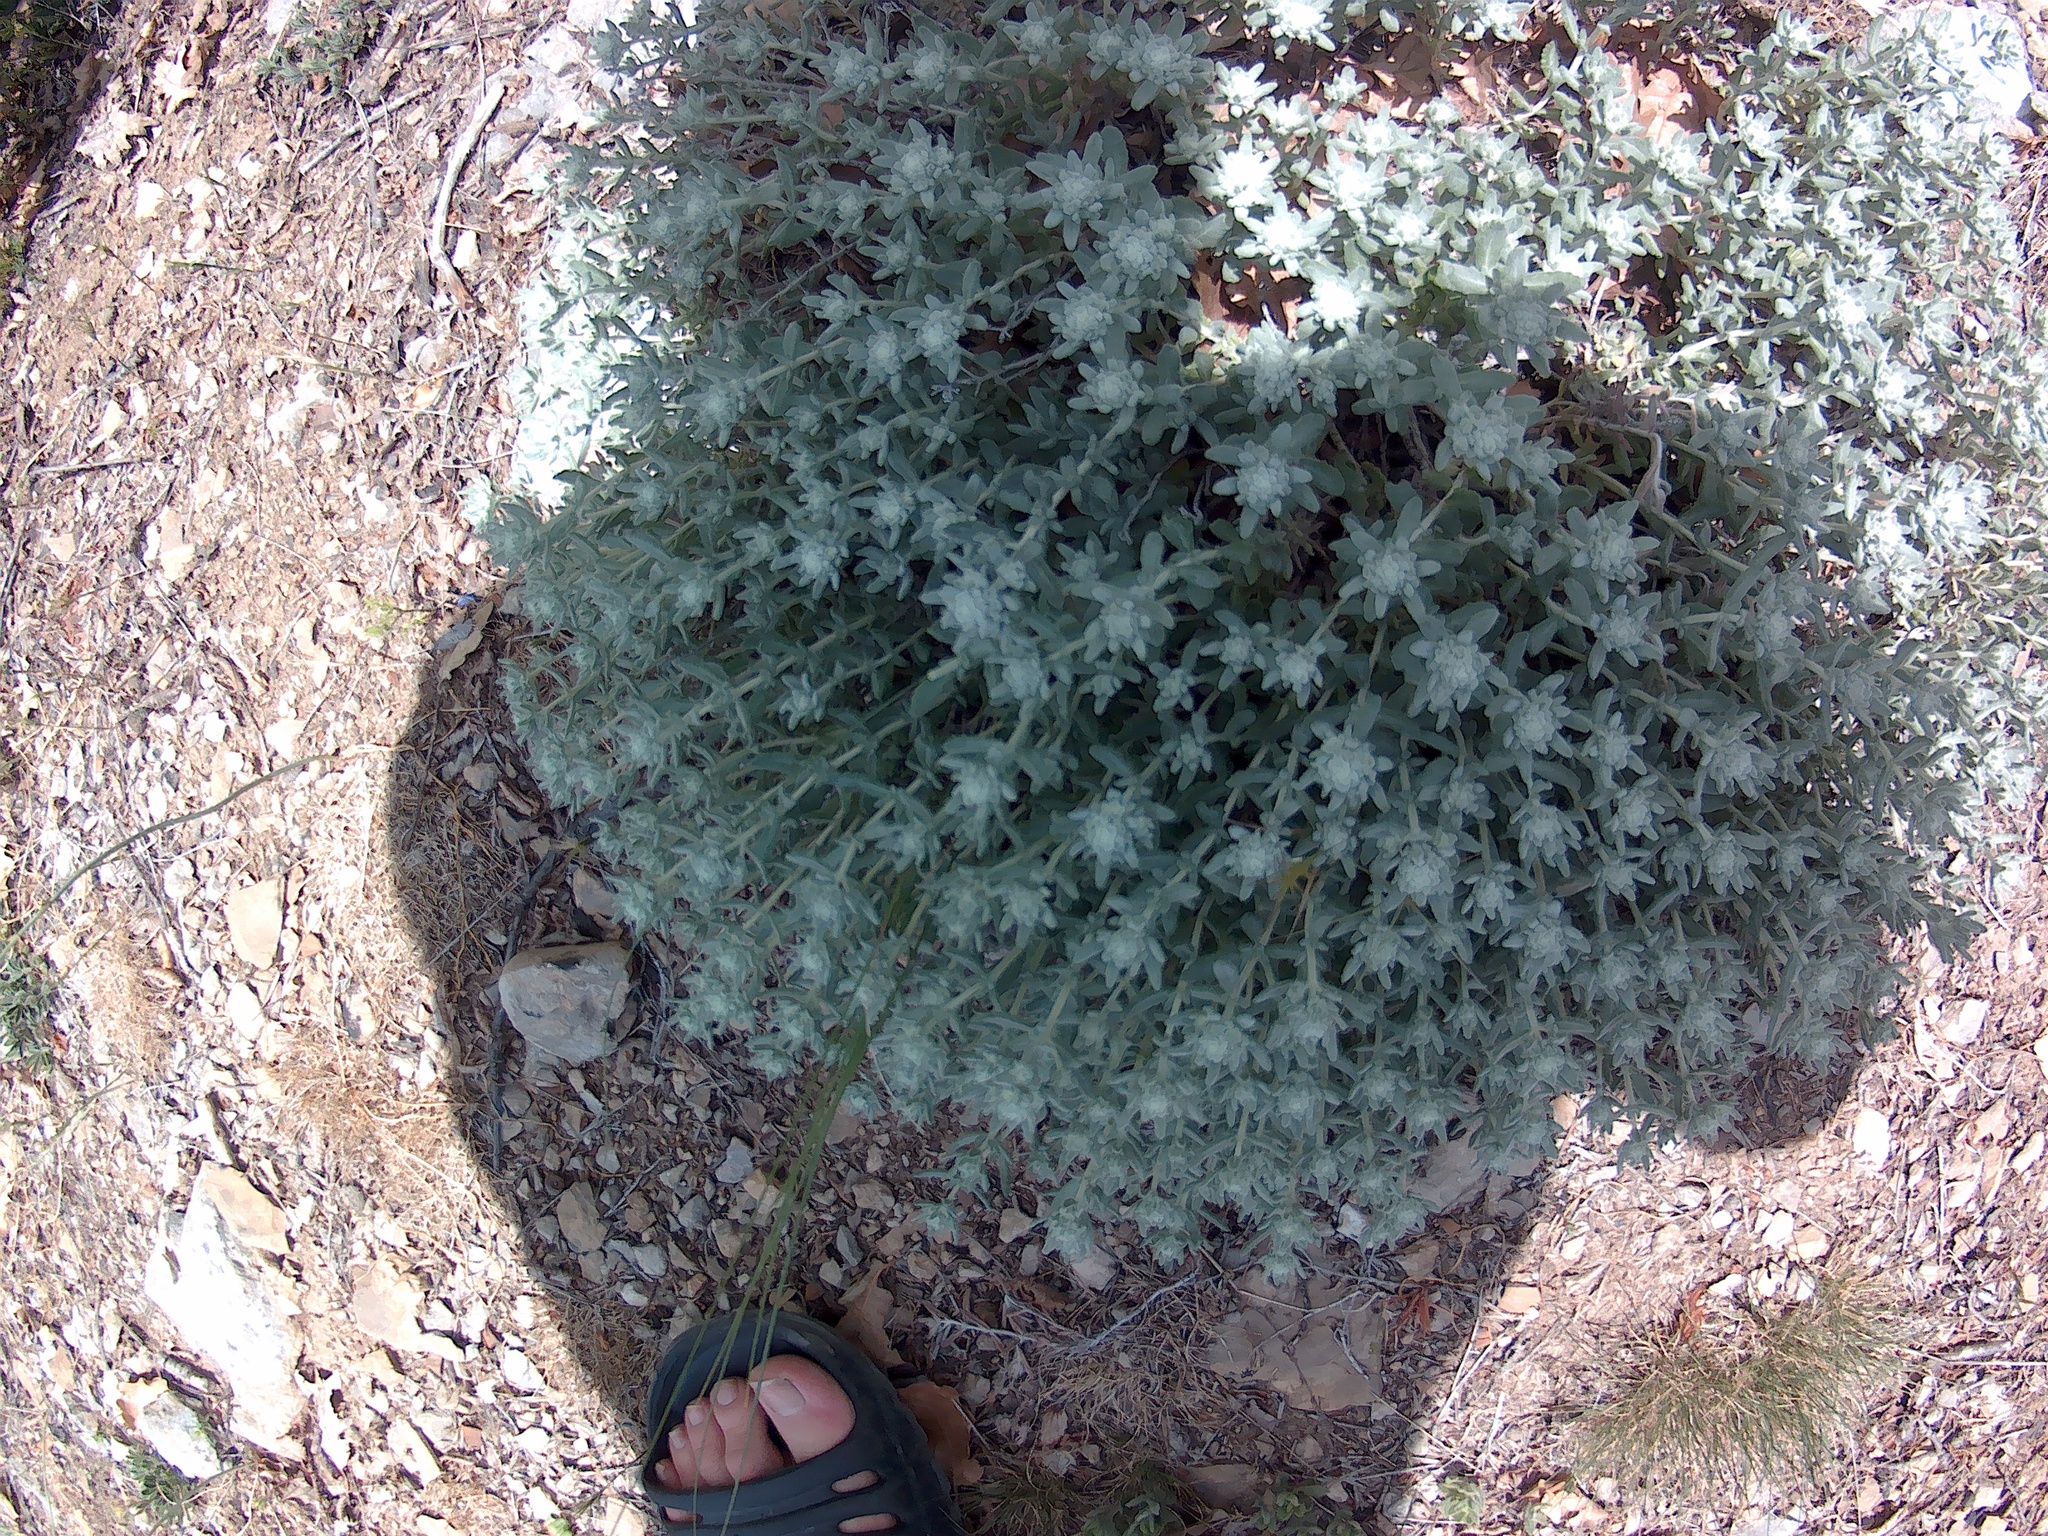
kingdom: Plantae
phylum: Tracheophyta
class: Magnoliopsida
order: Lamiales
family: Lamiaceae
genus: Teucrium
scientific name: Teucrium polium
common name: Poley
